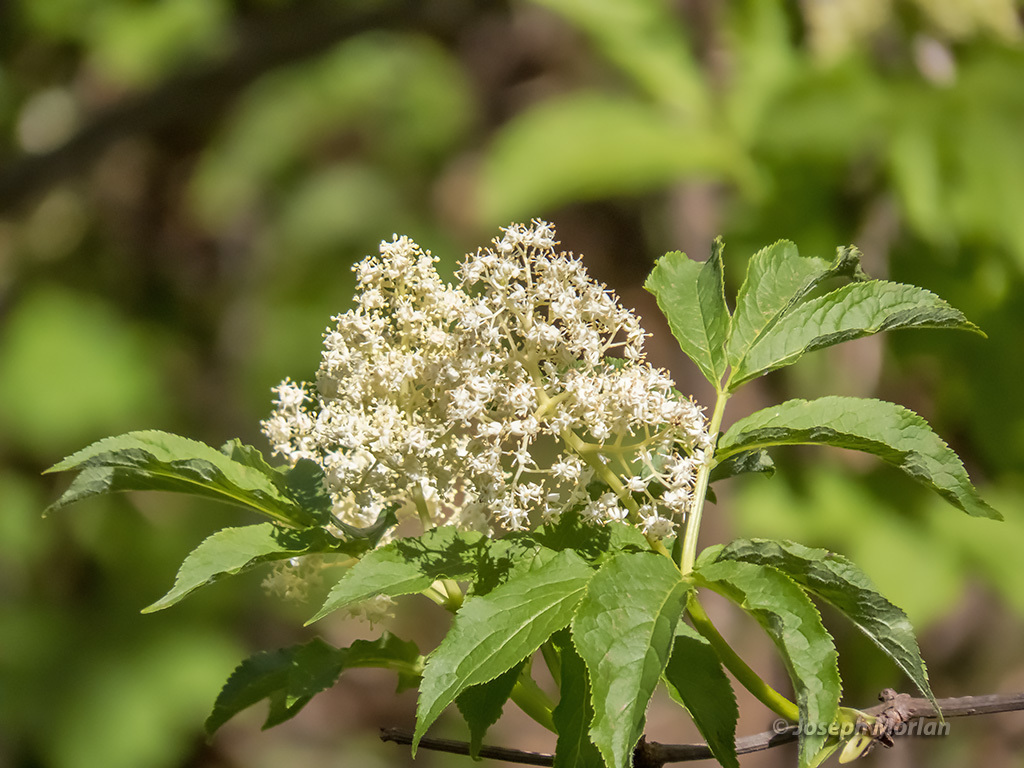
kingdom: Plantae
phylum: Tracheophyta
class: Magnoliopsida
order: Dipsacales
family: Viburnaceae
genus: Sambucus
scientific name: Sambucus racemosa
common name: Red-berried elder
